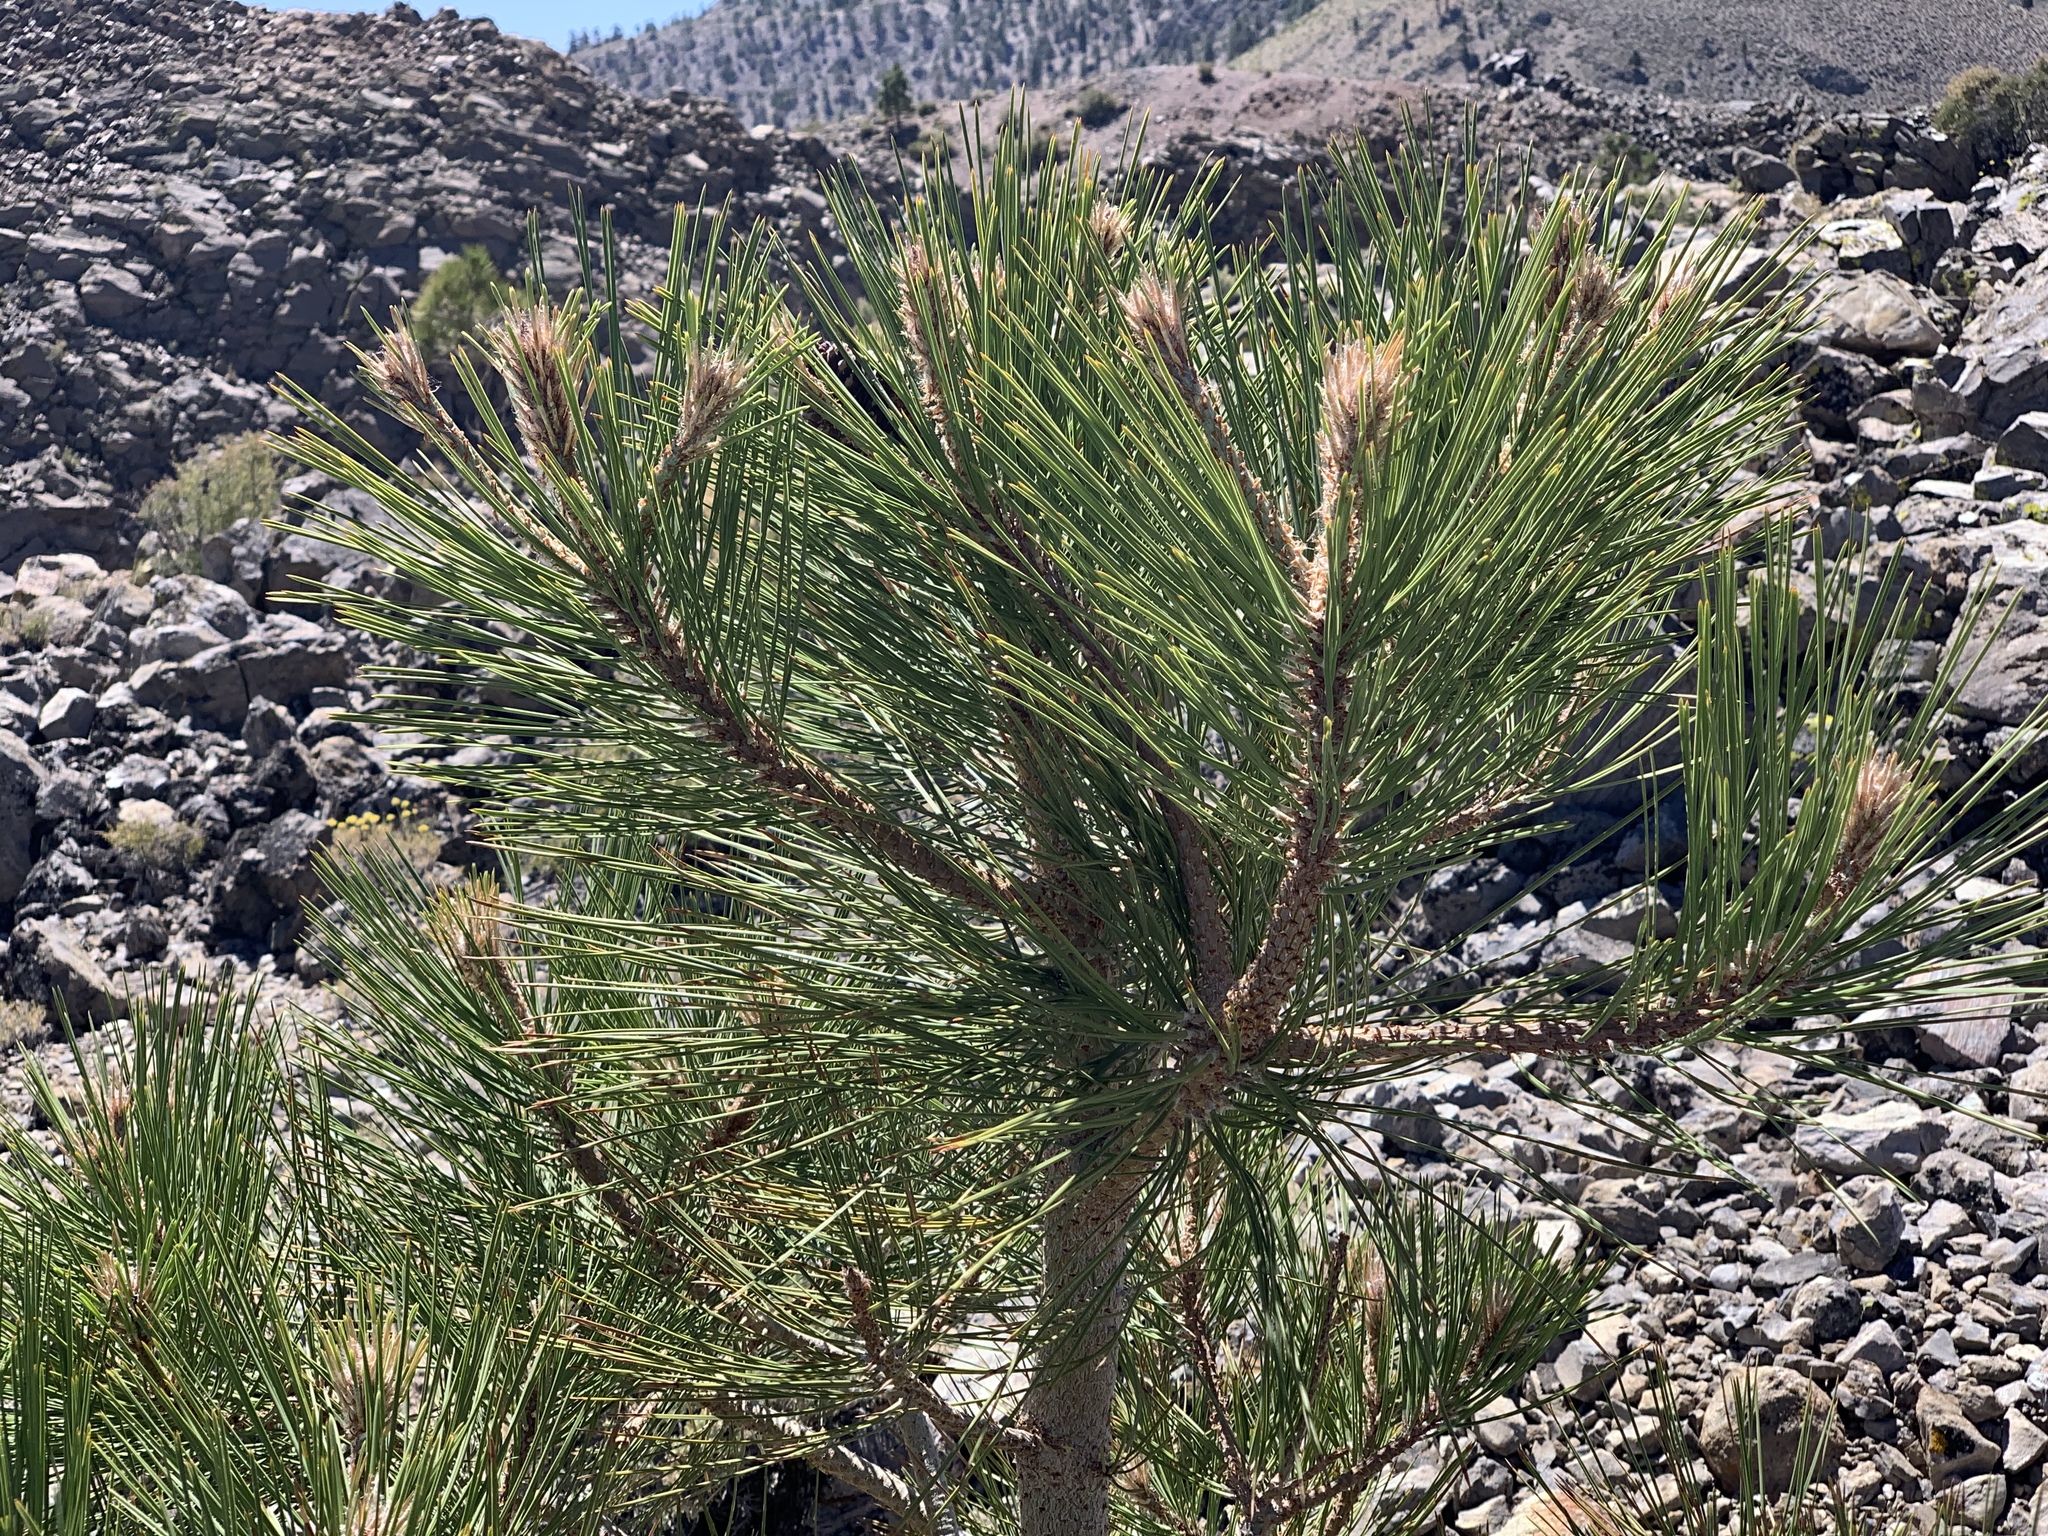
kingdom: Plantae
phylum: Tracheophyta
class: Pinopsida
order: Pinales
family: Pinaceae
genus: Pinus
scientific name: Pinus jeffreyi
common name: Jeffrey pine
